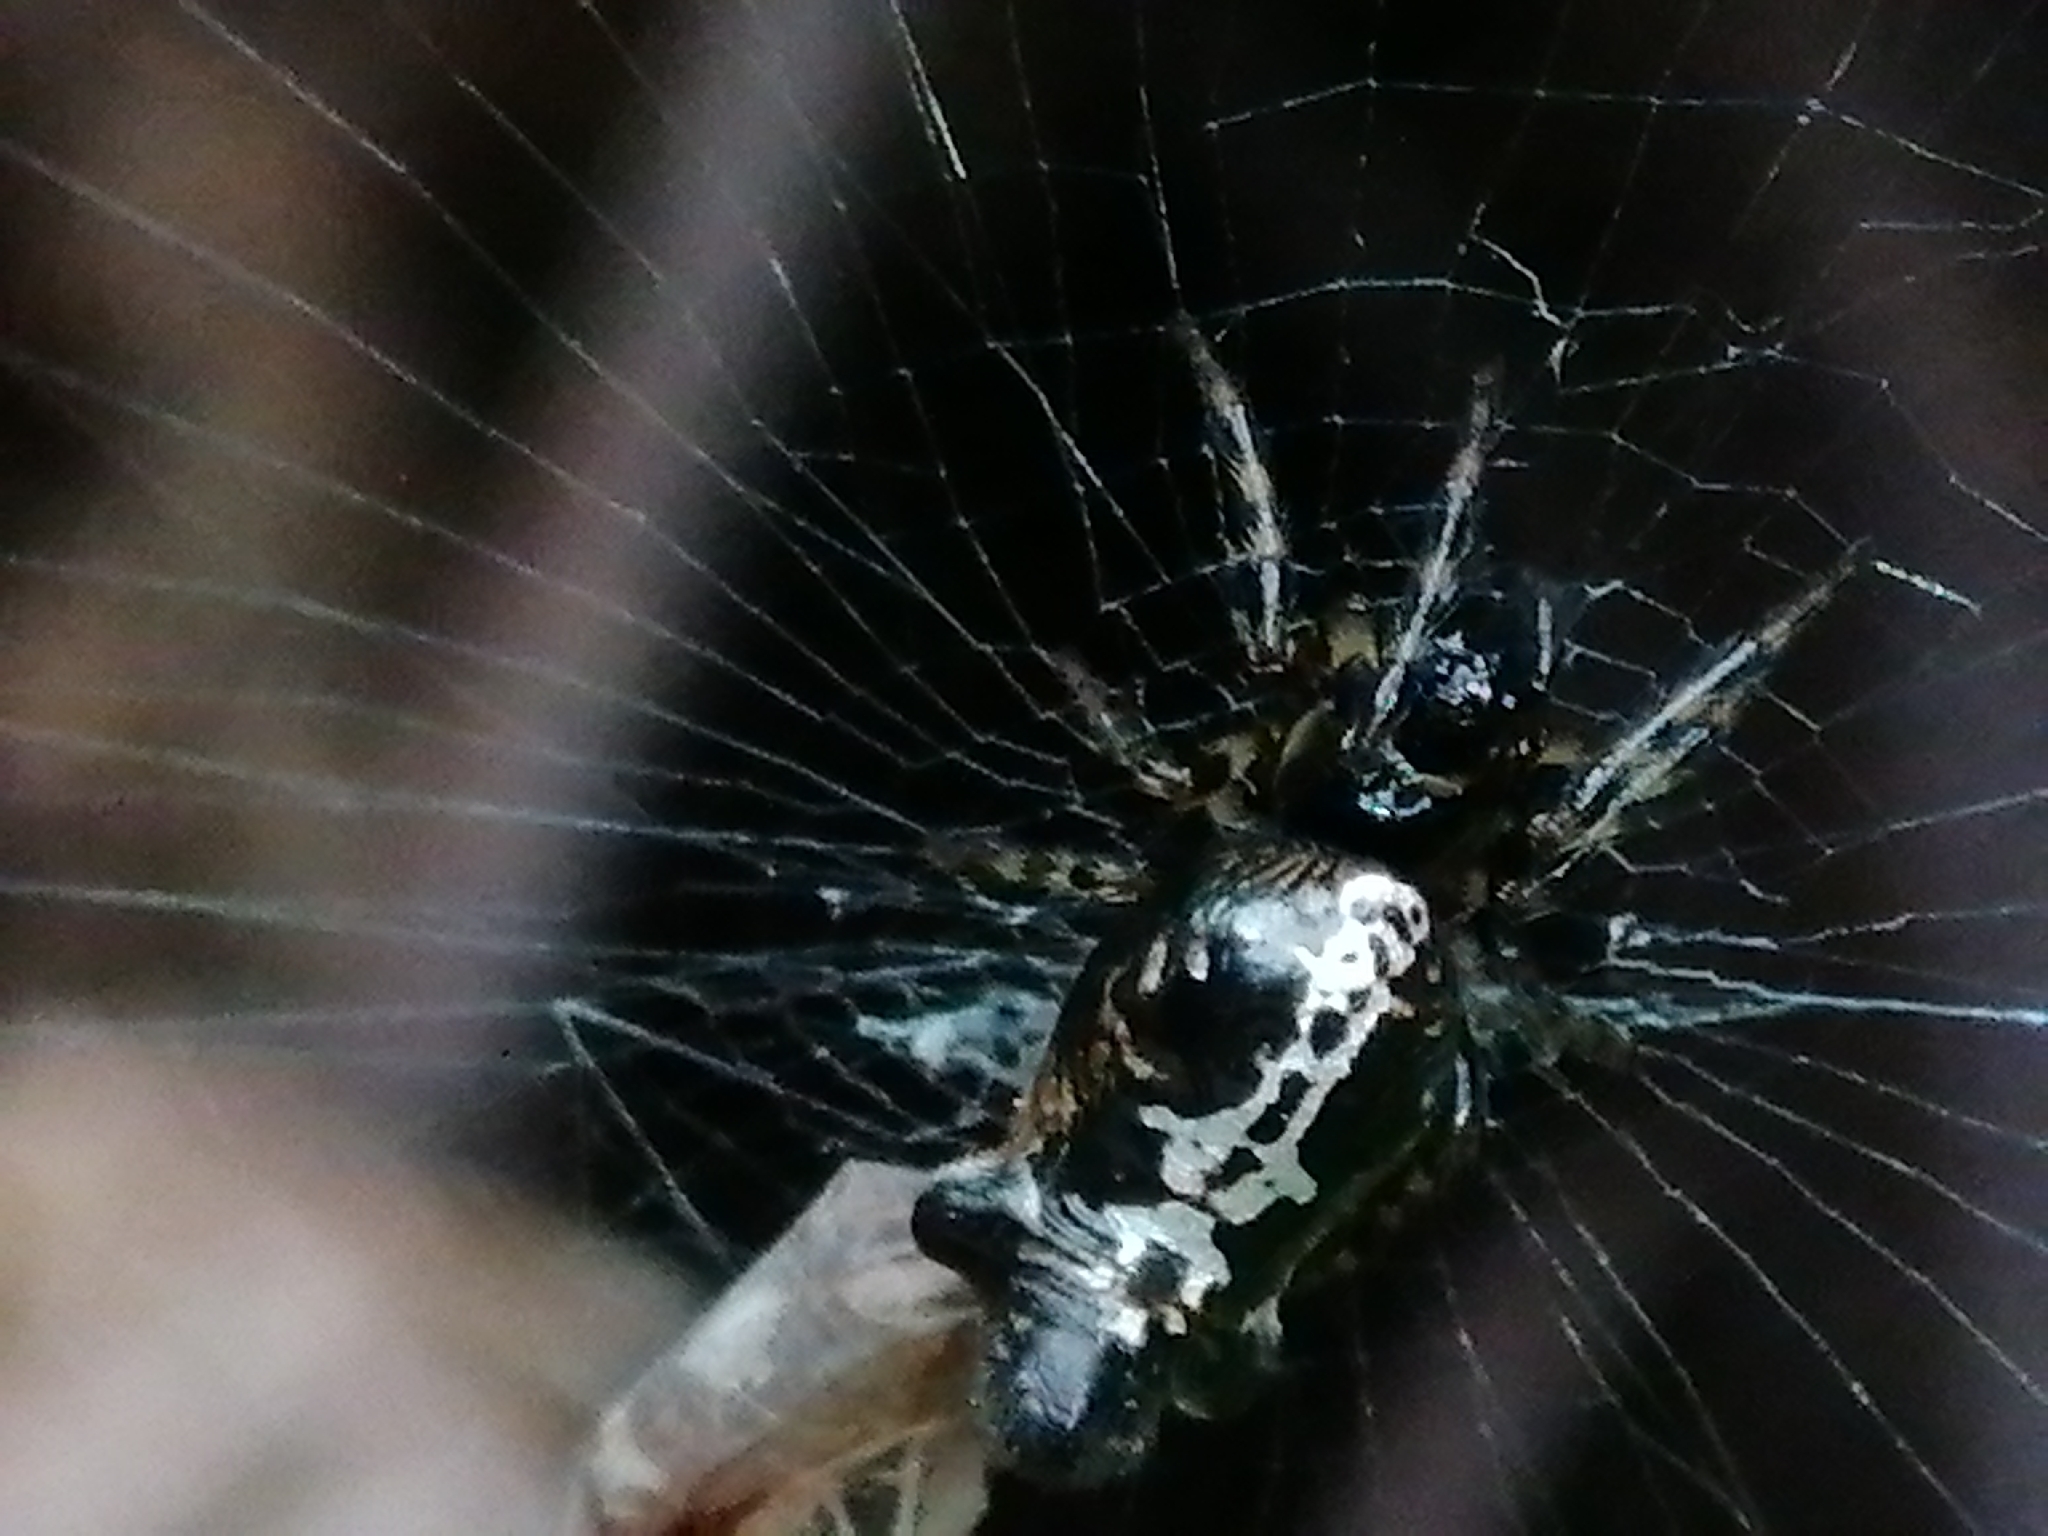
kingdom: Animalia
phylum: Arthropoda
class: Arachnida
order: Araneae
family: Araneidae
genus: Cyclosa
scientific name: Cyclosa trilobata
